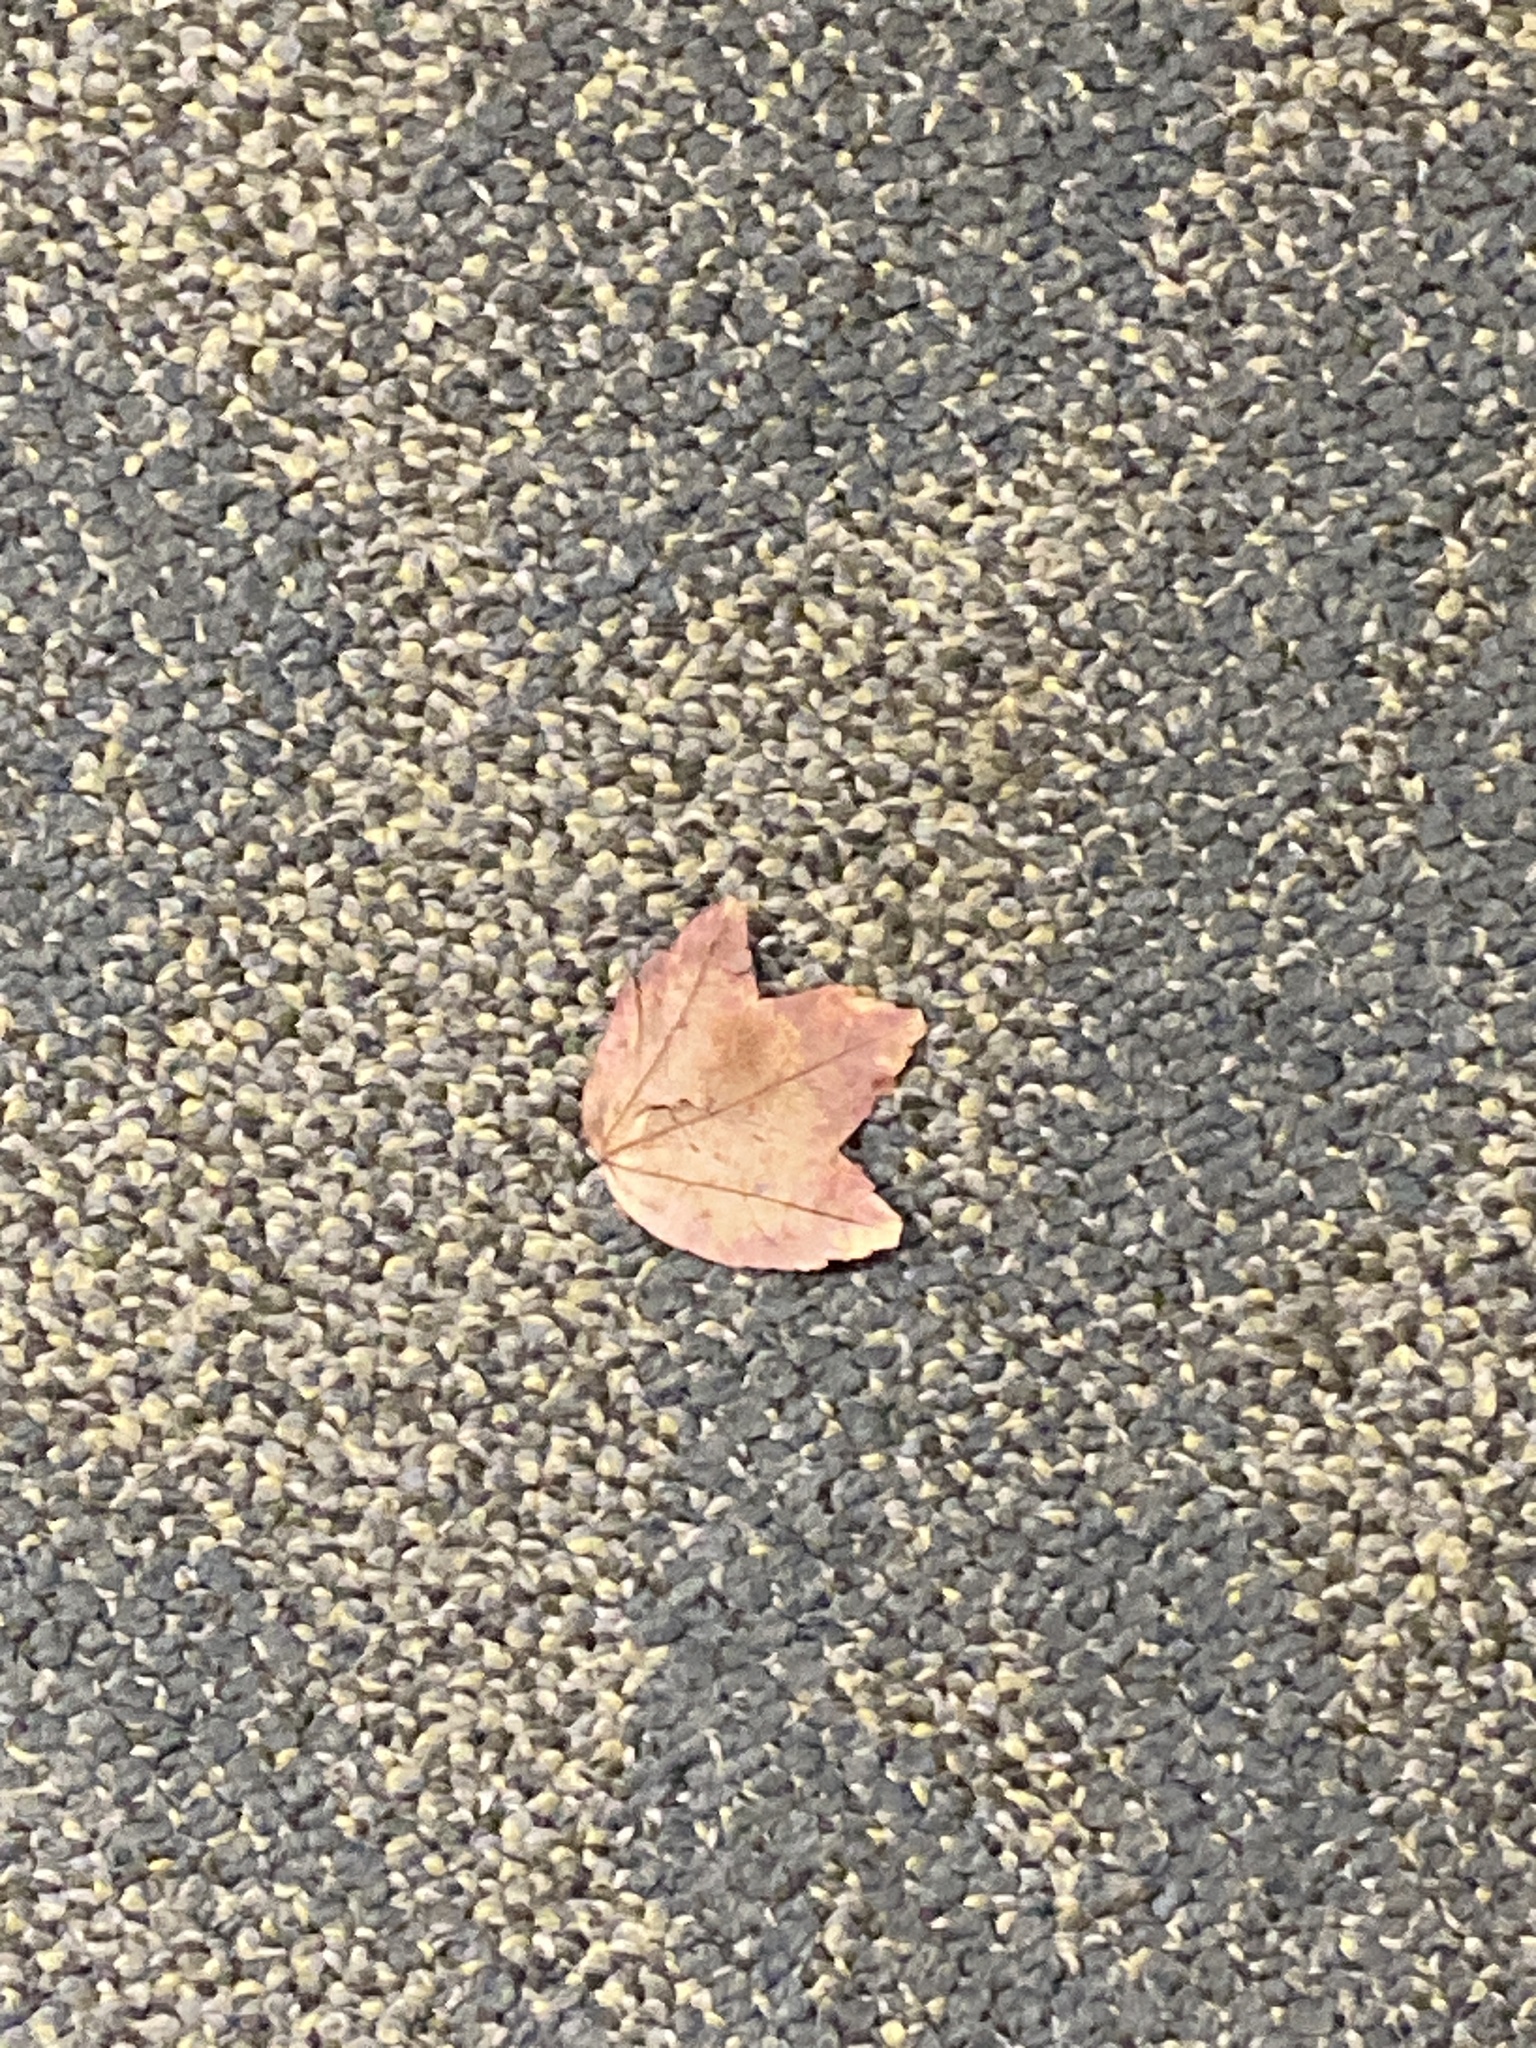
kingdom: Plantae
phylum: Tracheophyta
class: Magnoliopsida
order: Sapindales
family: Sapindaceae
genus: Acer
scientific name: Acer rubrum
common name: Red maple
